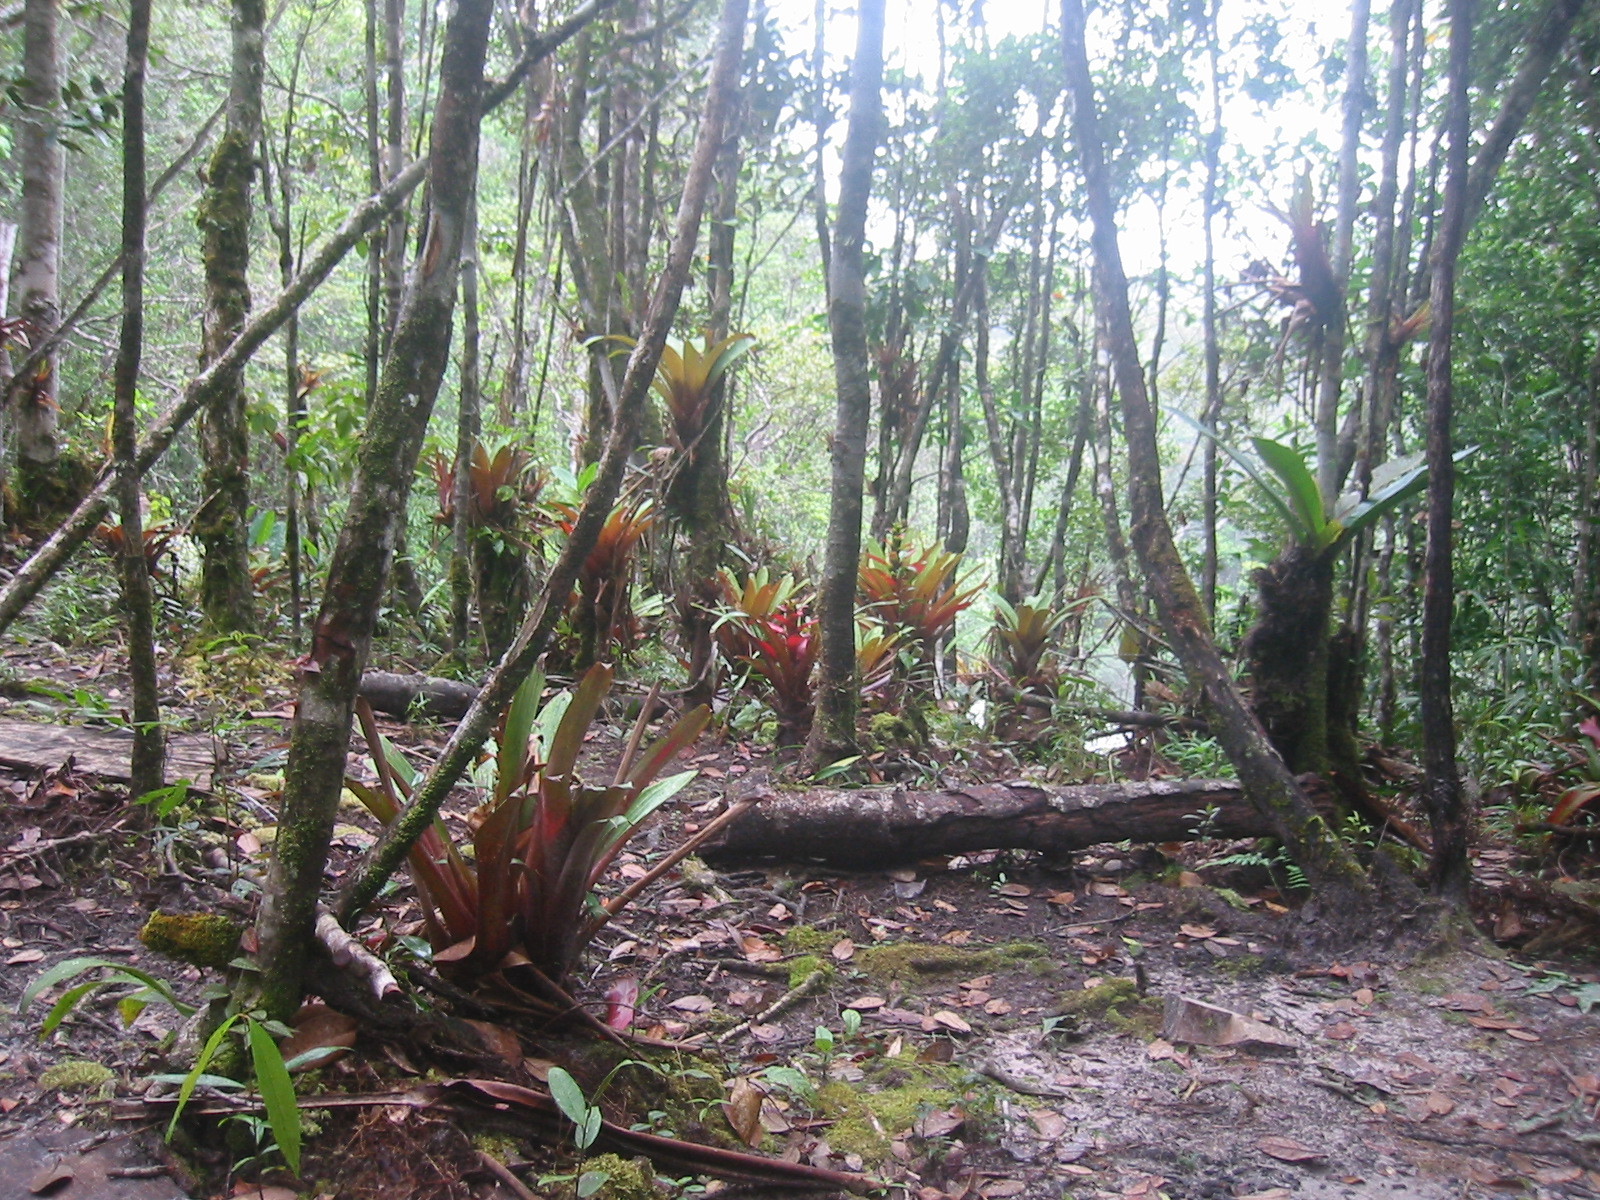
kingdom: Plantae
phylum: Tracheophyta
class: Liliopsida
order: Poales
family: Bromeliaceae
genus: Guzmania
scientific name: Guzmania squarrosa
